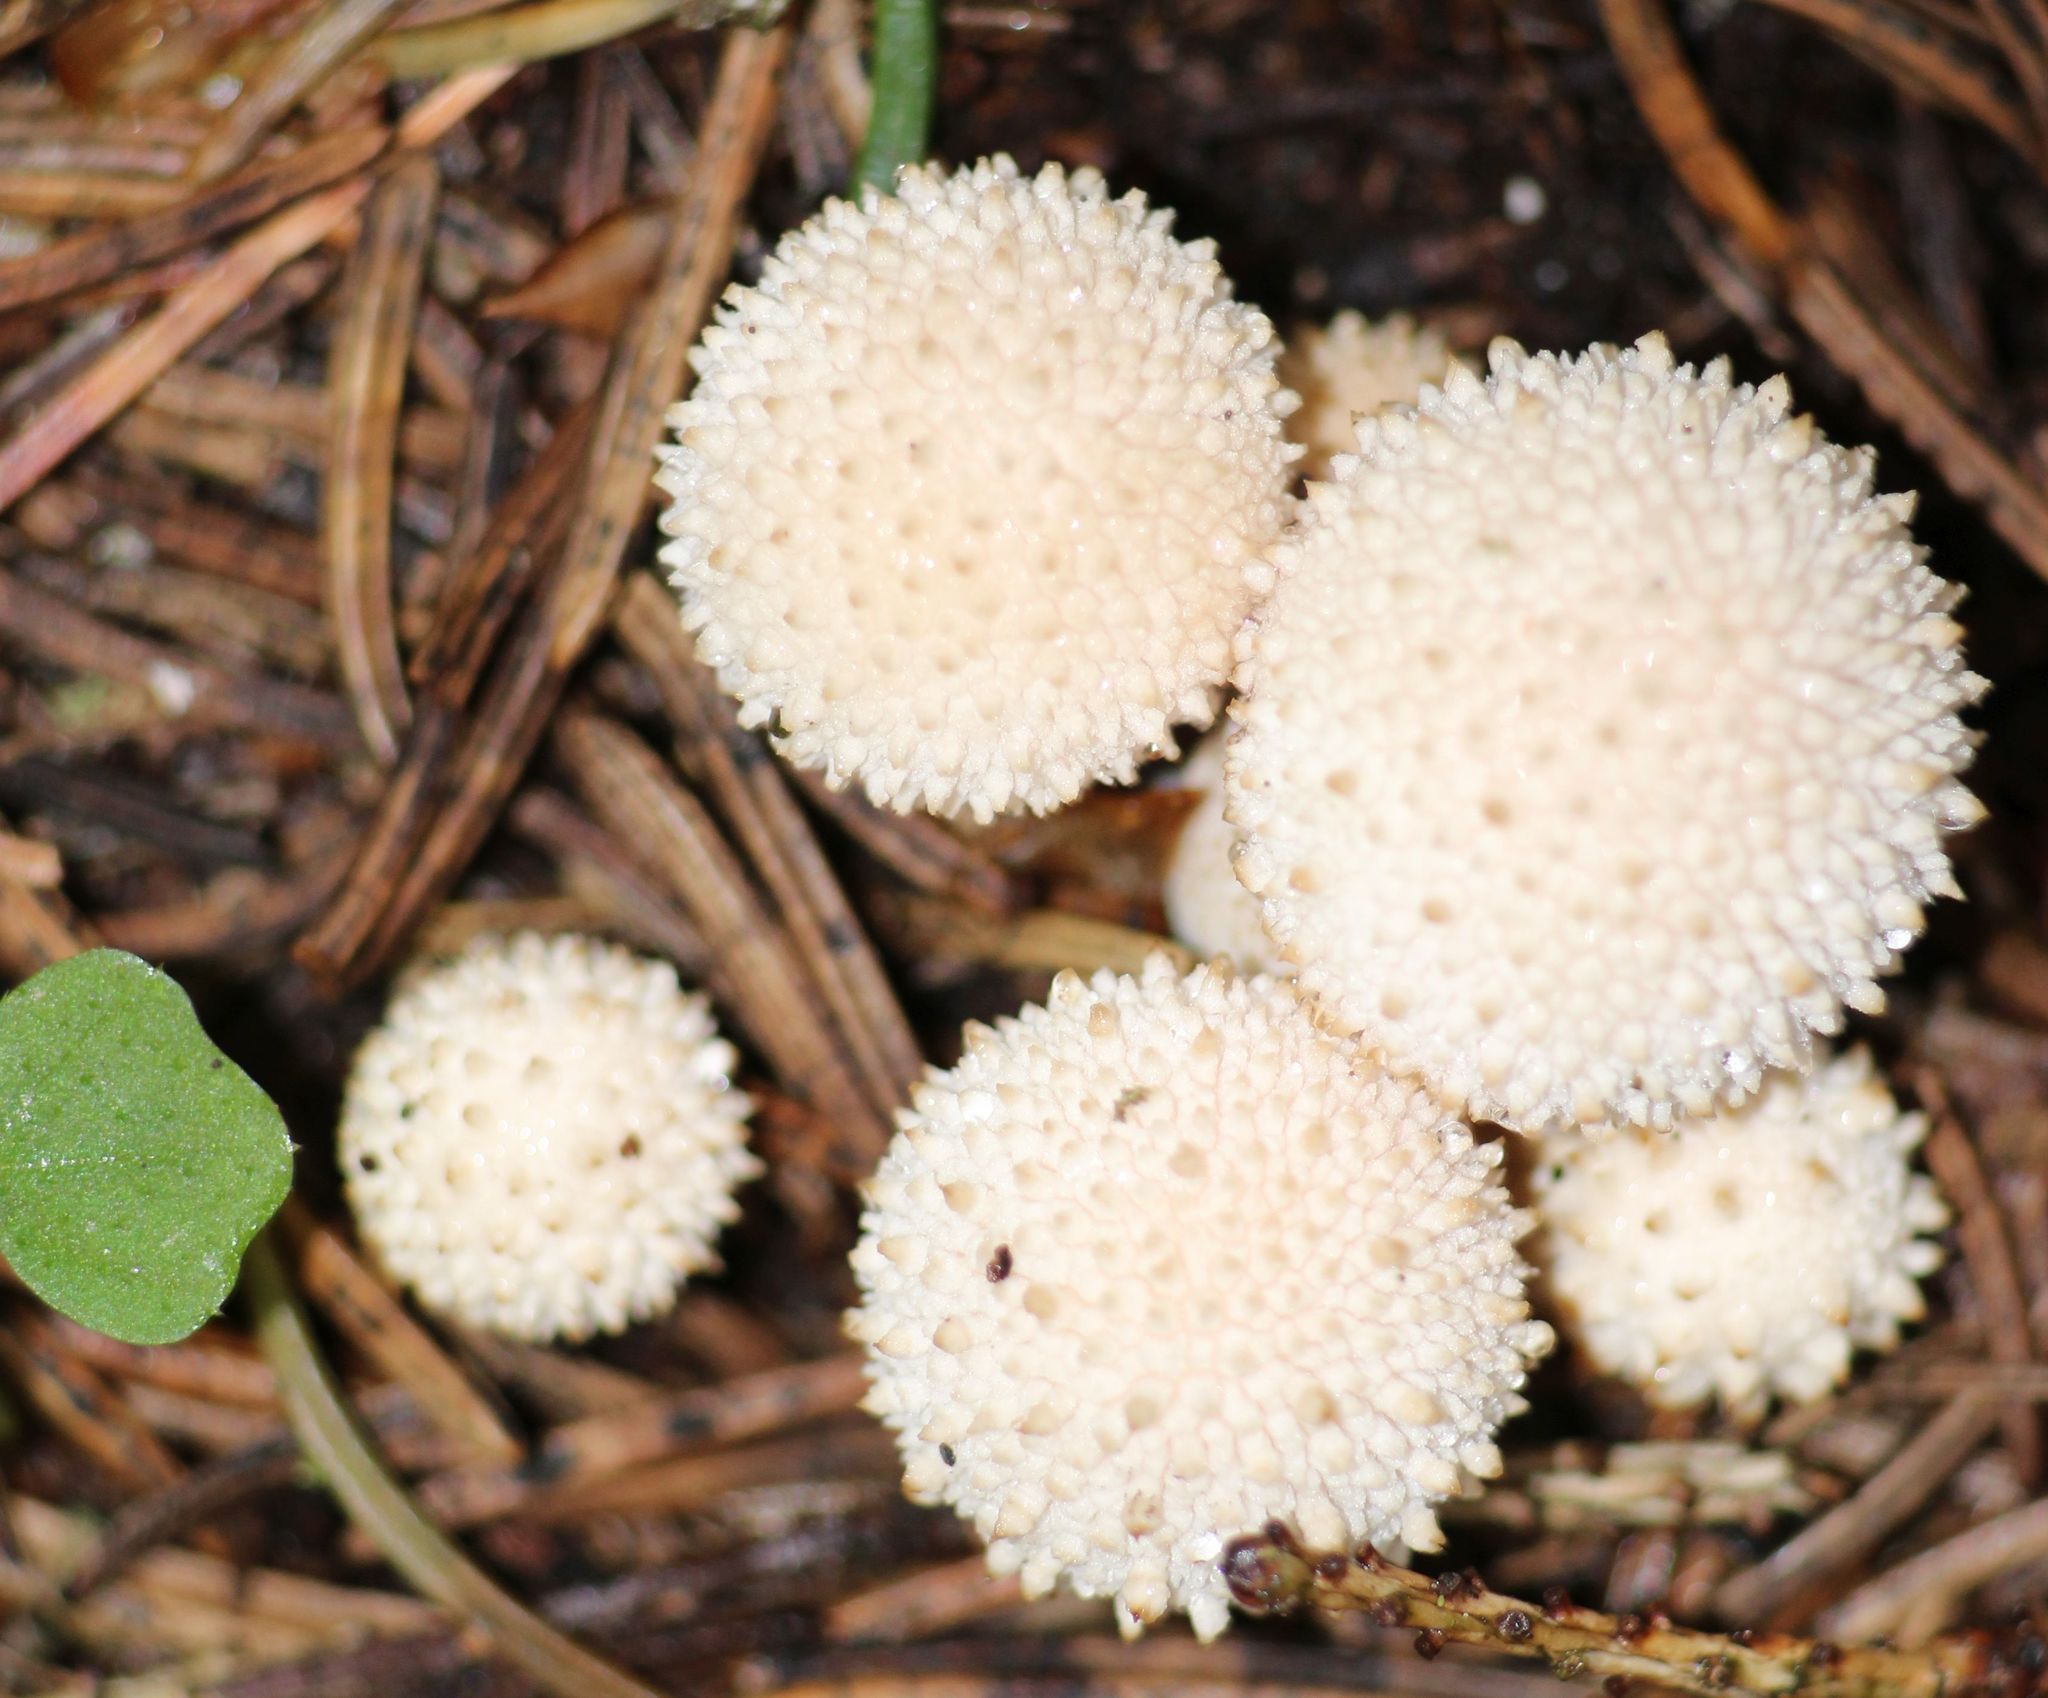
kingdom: Fungi
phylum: Basidiomycota
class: Agaricomycetes
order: Agaricales
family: Lycoperdaceae
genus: Lycoperdon
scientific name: Lycoperdon perlatum
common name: Common puffball
